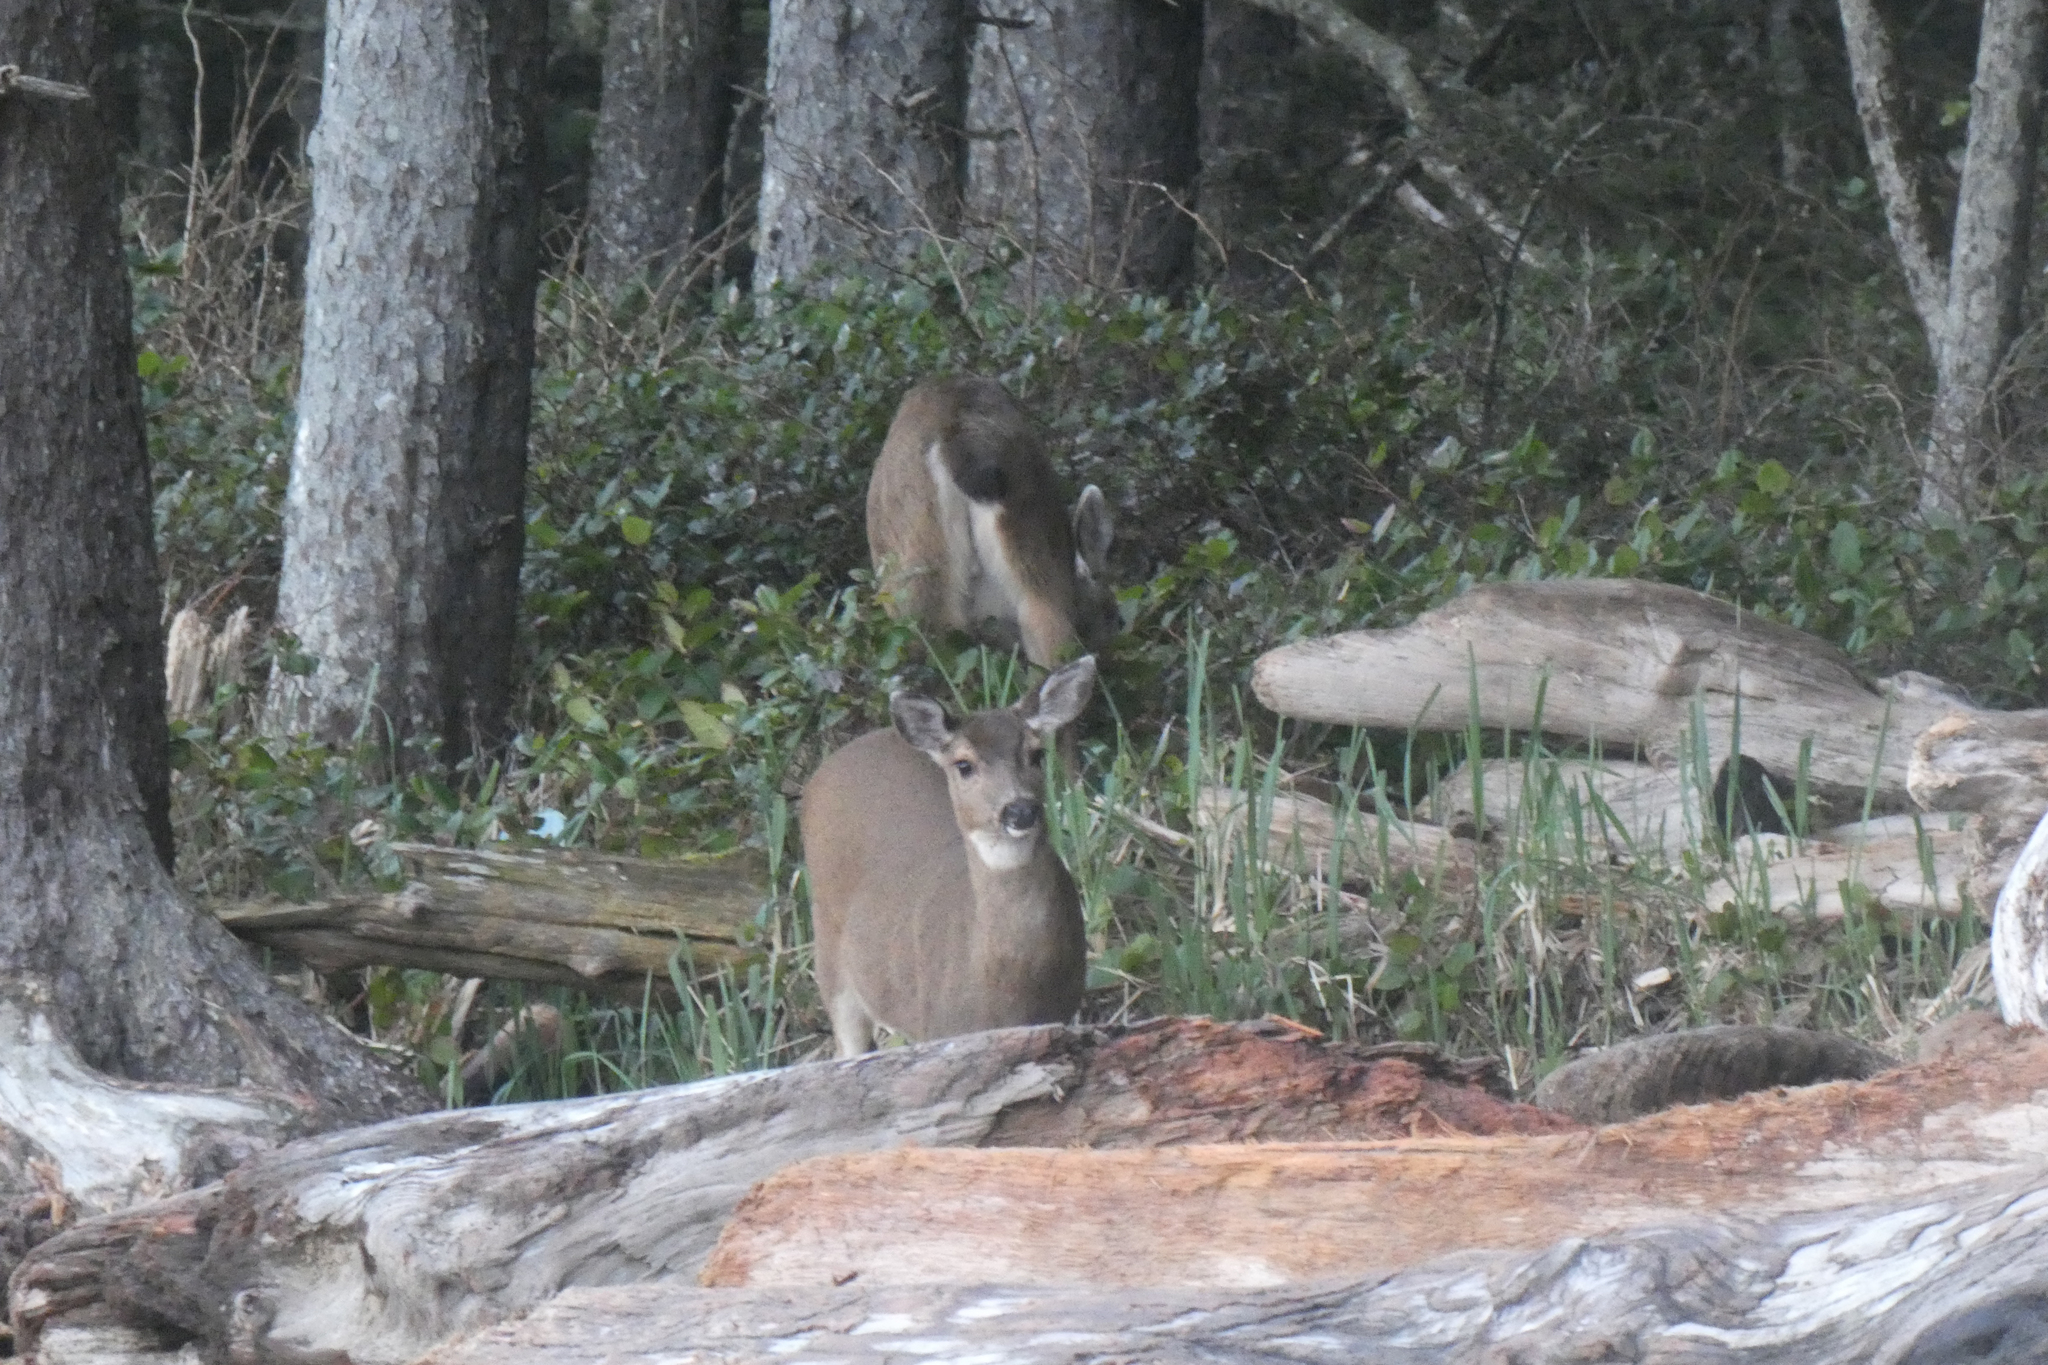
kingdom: Animalia
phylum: Chordata
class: Mammalia
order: Artiodactyla
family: Cervidae
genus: Odocoileus
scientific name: Odocoileus hemionus
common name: Mule deer
